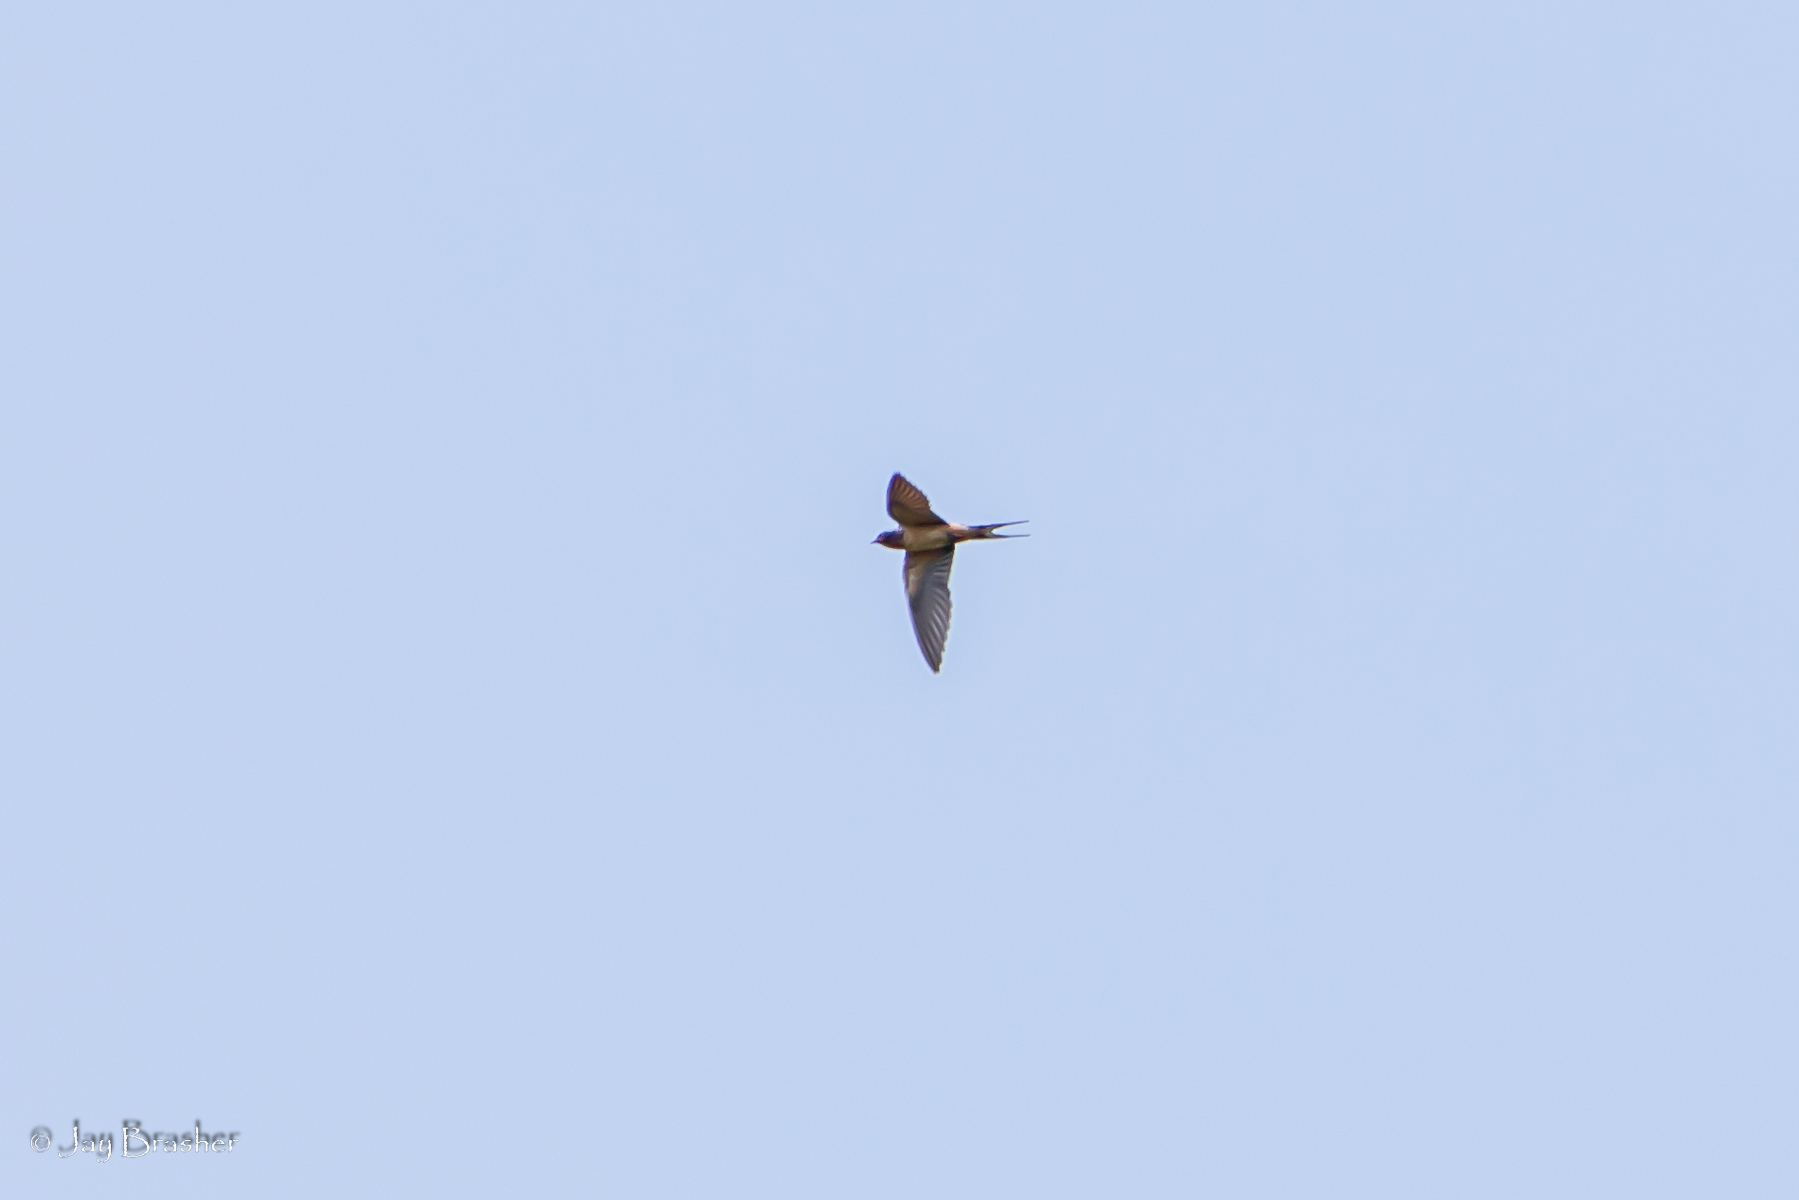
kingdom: Animalia
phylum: Chordata
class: Aves
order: Passeriformes
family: Hirundinidae
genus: Hirundo
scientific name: Hirundo rustica
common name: Barn swallow
